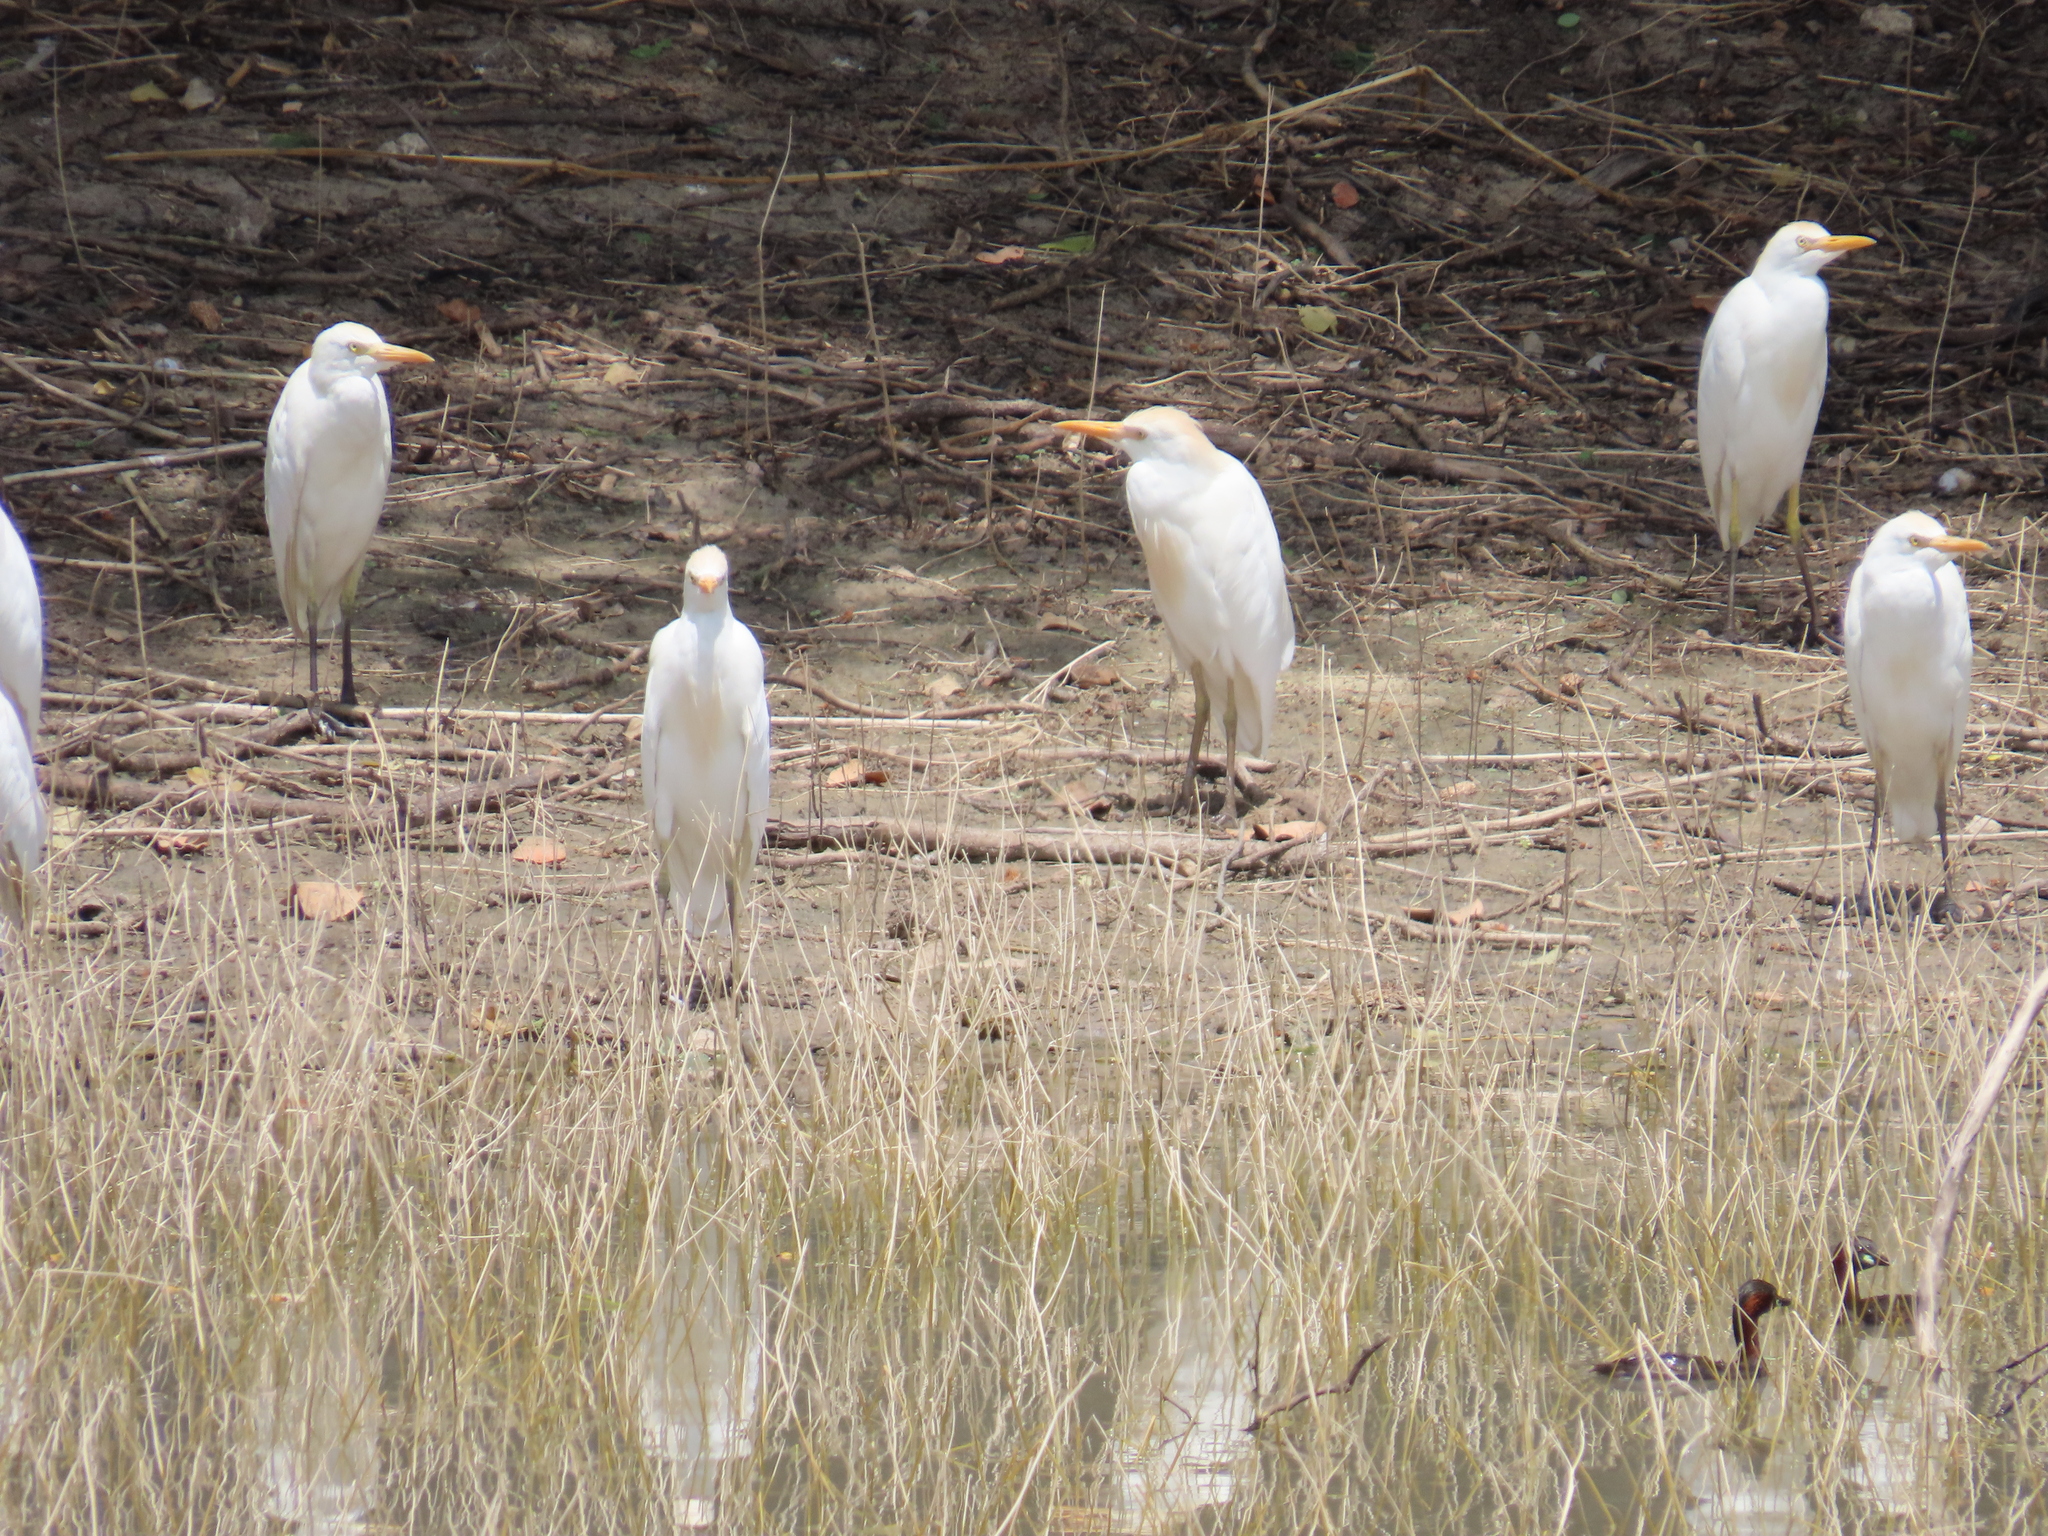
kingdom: Animalia
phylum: Chordata
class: Aves
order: Pelecaniformes
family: Ardeidae
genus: Bubulcus
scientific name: Bubulcus ibis
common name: Cattle egret
